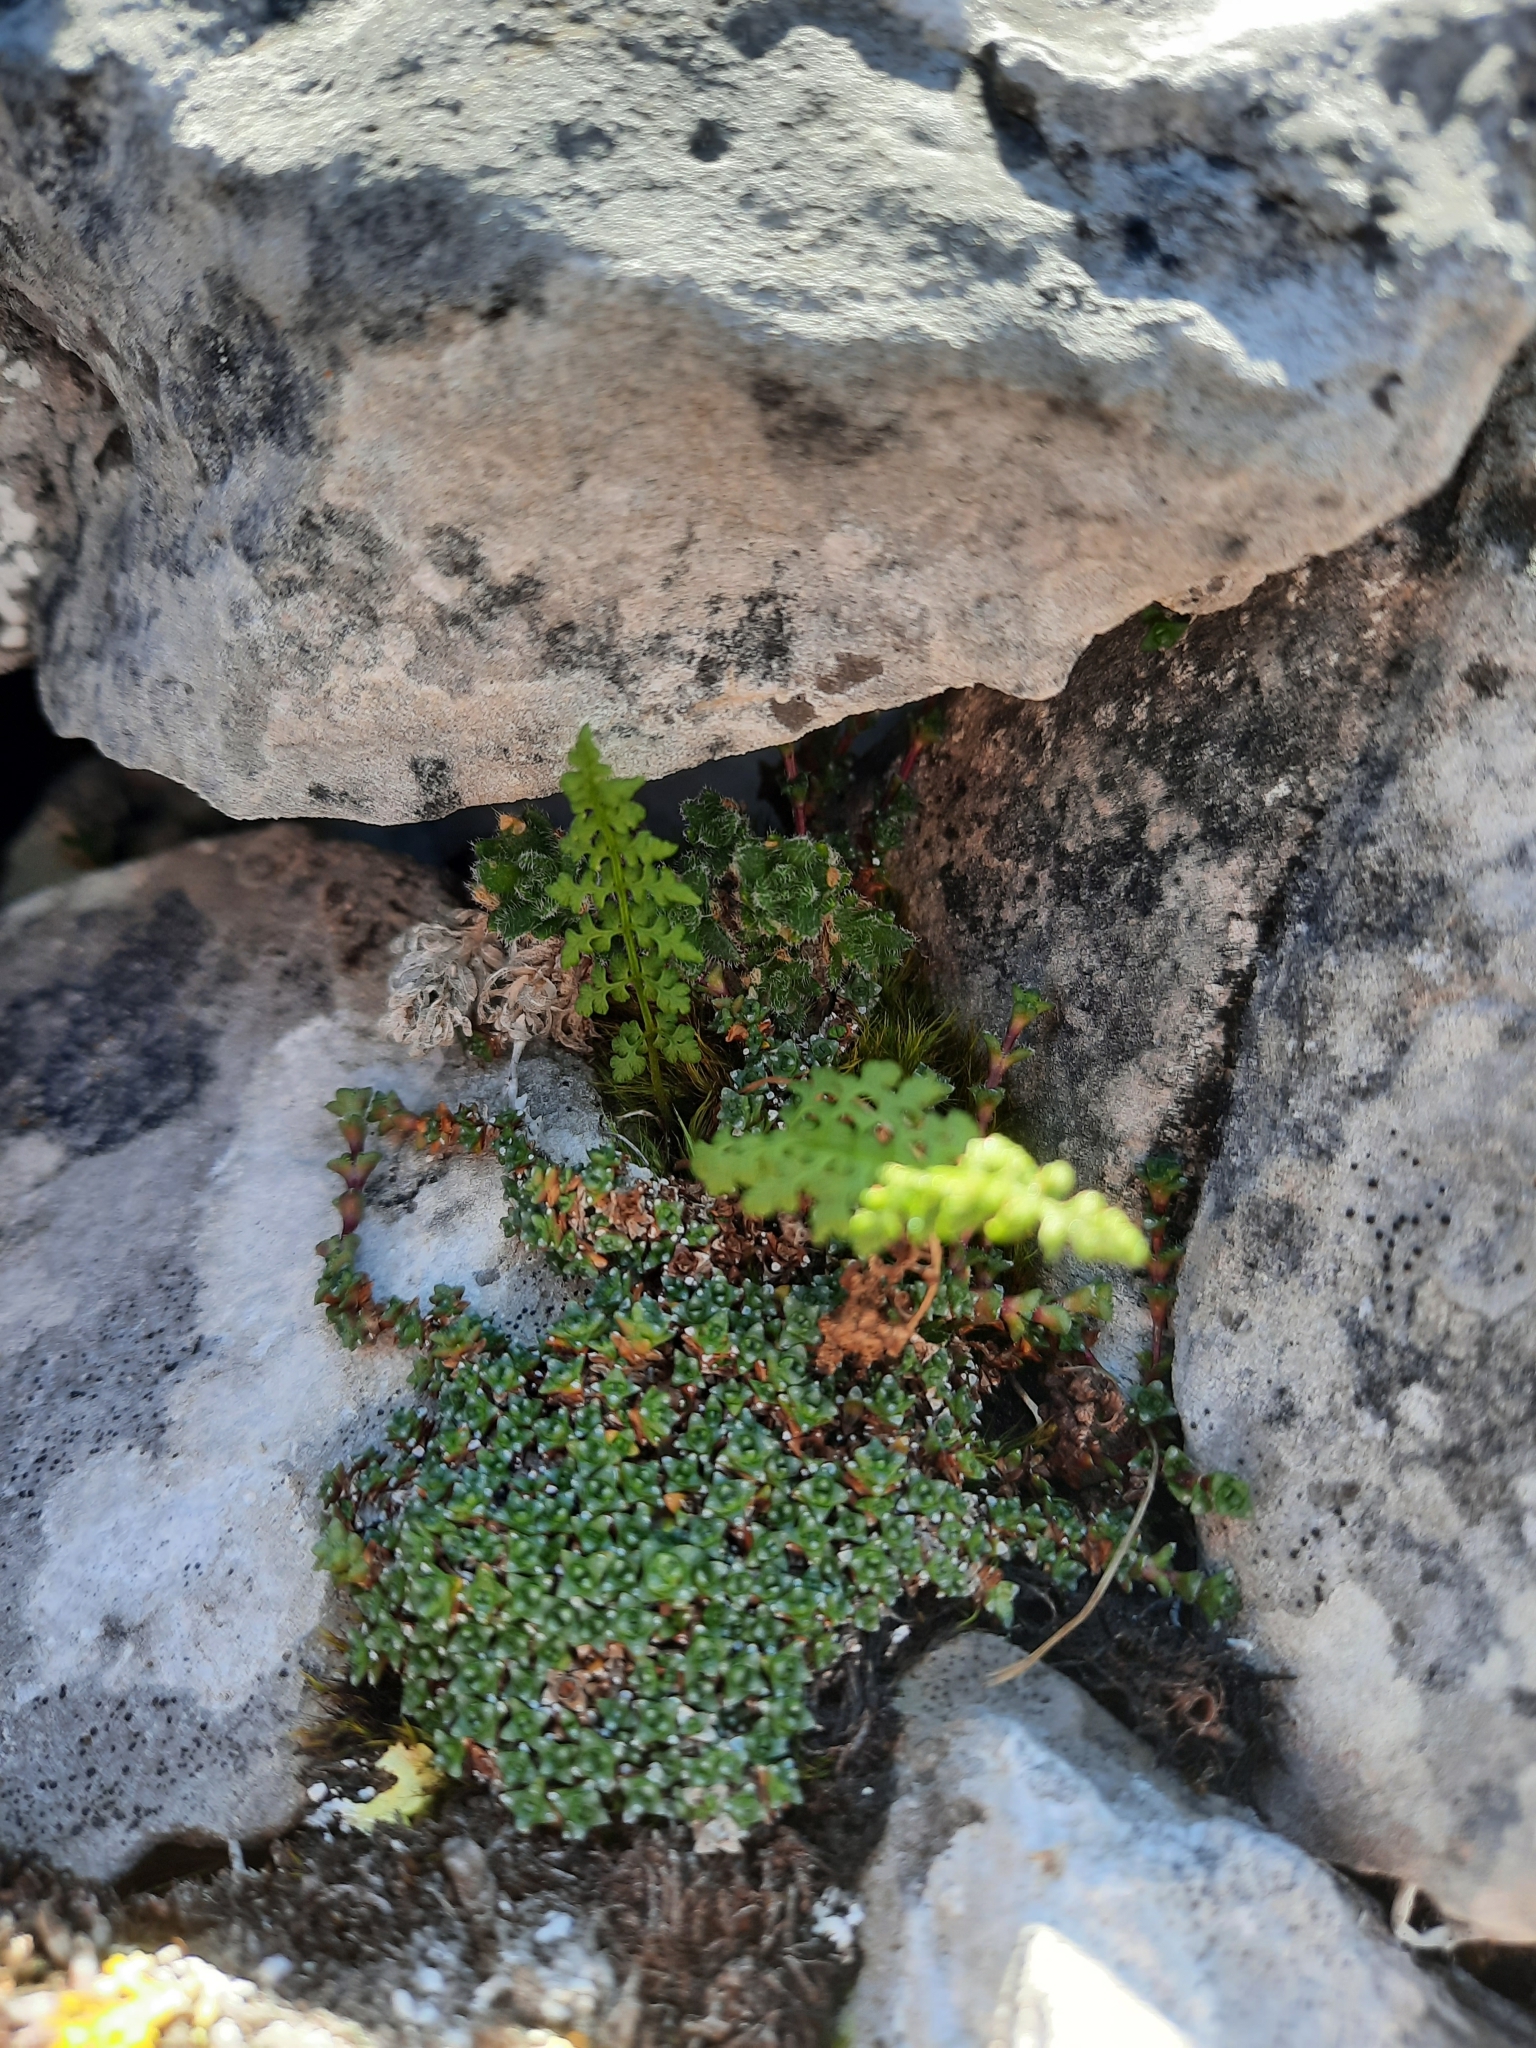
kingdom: Plantae
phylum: Tracheophyta
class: Polypodiopsida
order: Polypodiales
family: Cystopteridaceae
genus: Cystopteris
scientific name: Cystopteris fragilis
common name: Brittle bladder fern
